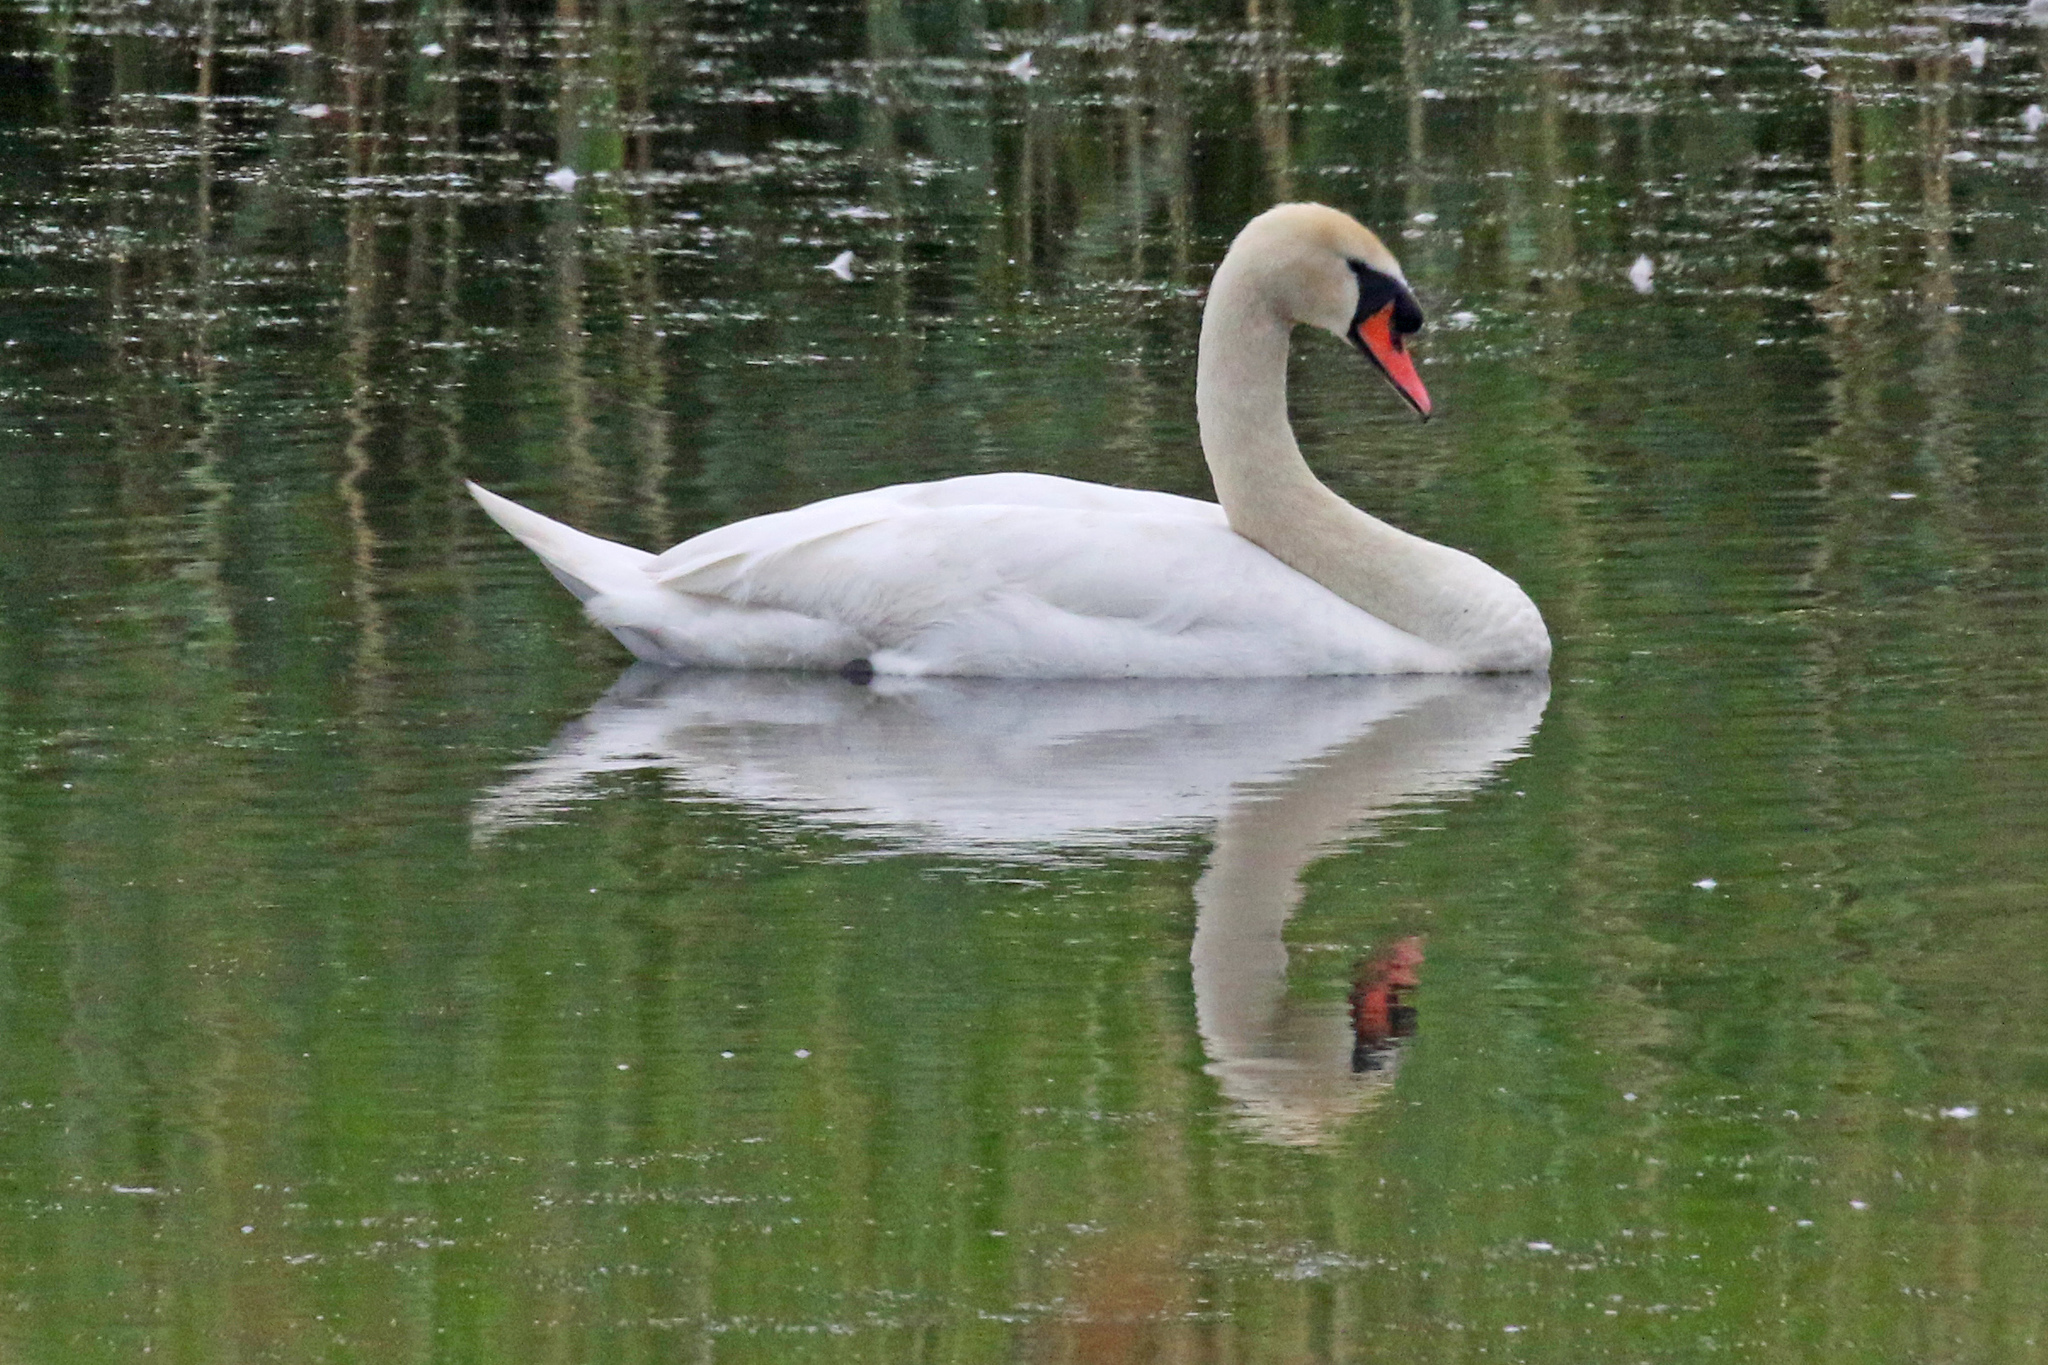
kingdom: Animalia
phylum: Chordata
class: Aves
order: Anseriformes
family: Anatidae
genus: Cygnus
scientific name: Cygnus olor
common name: Mute swan
